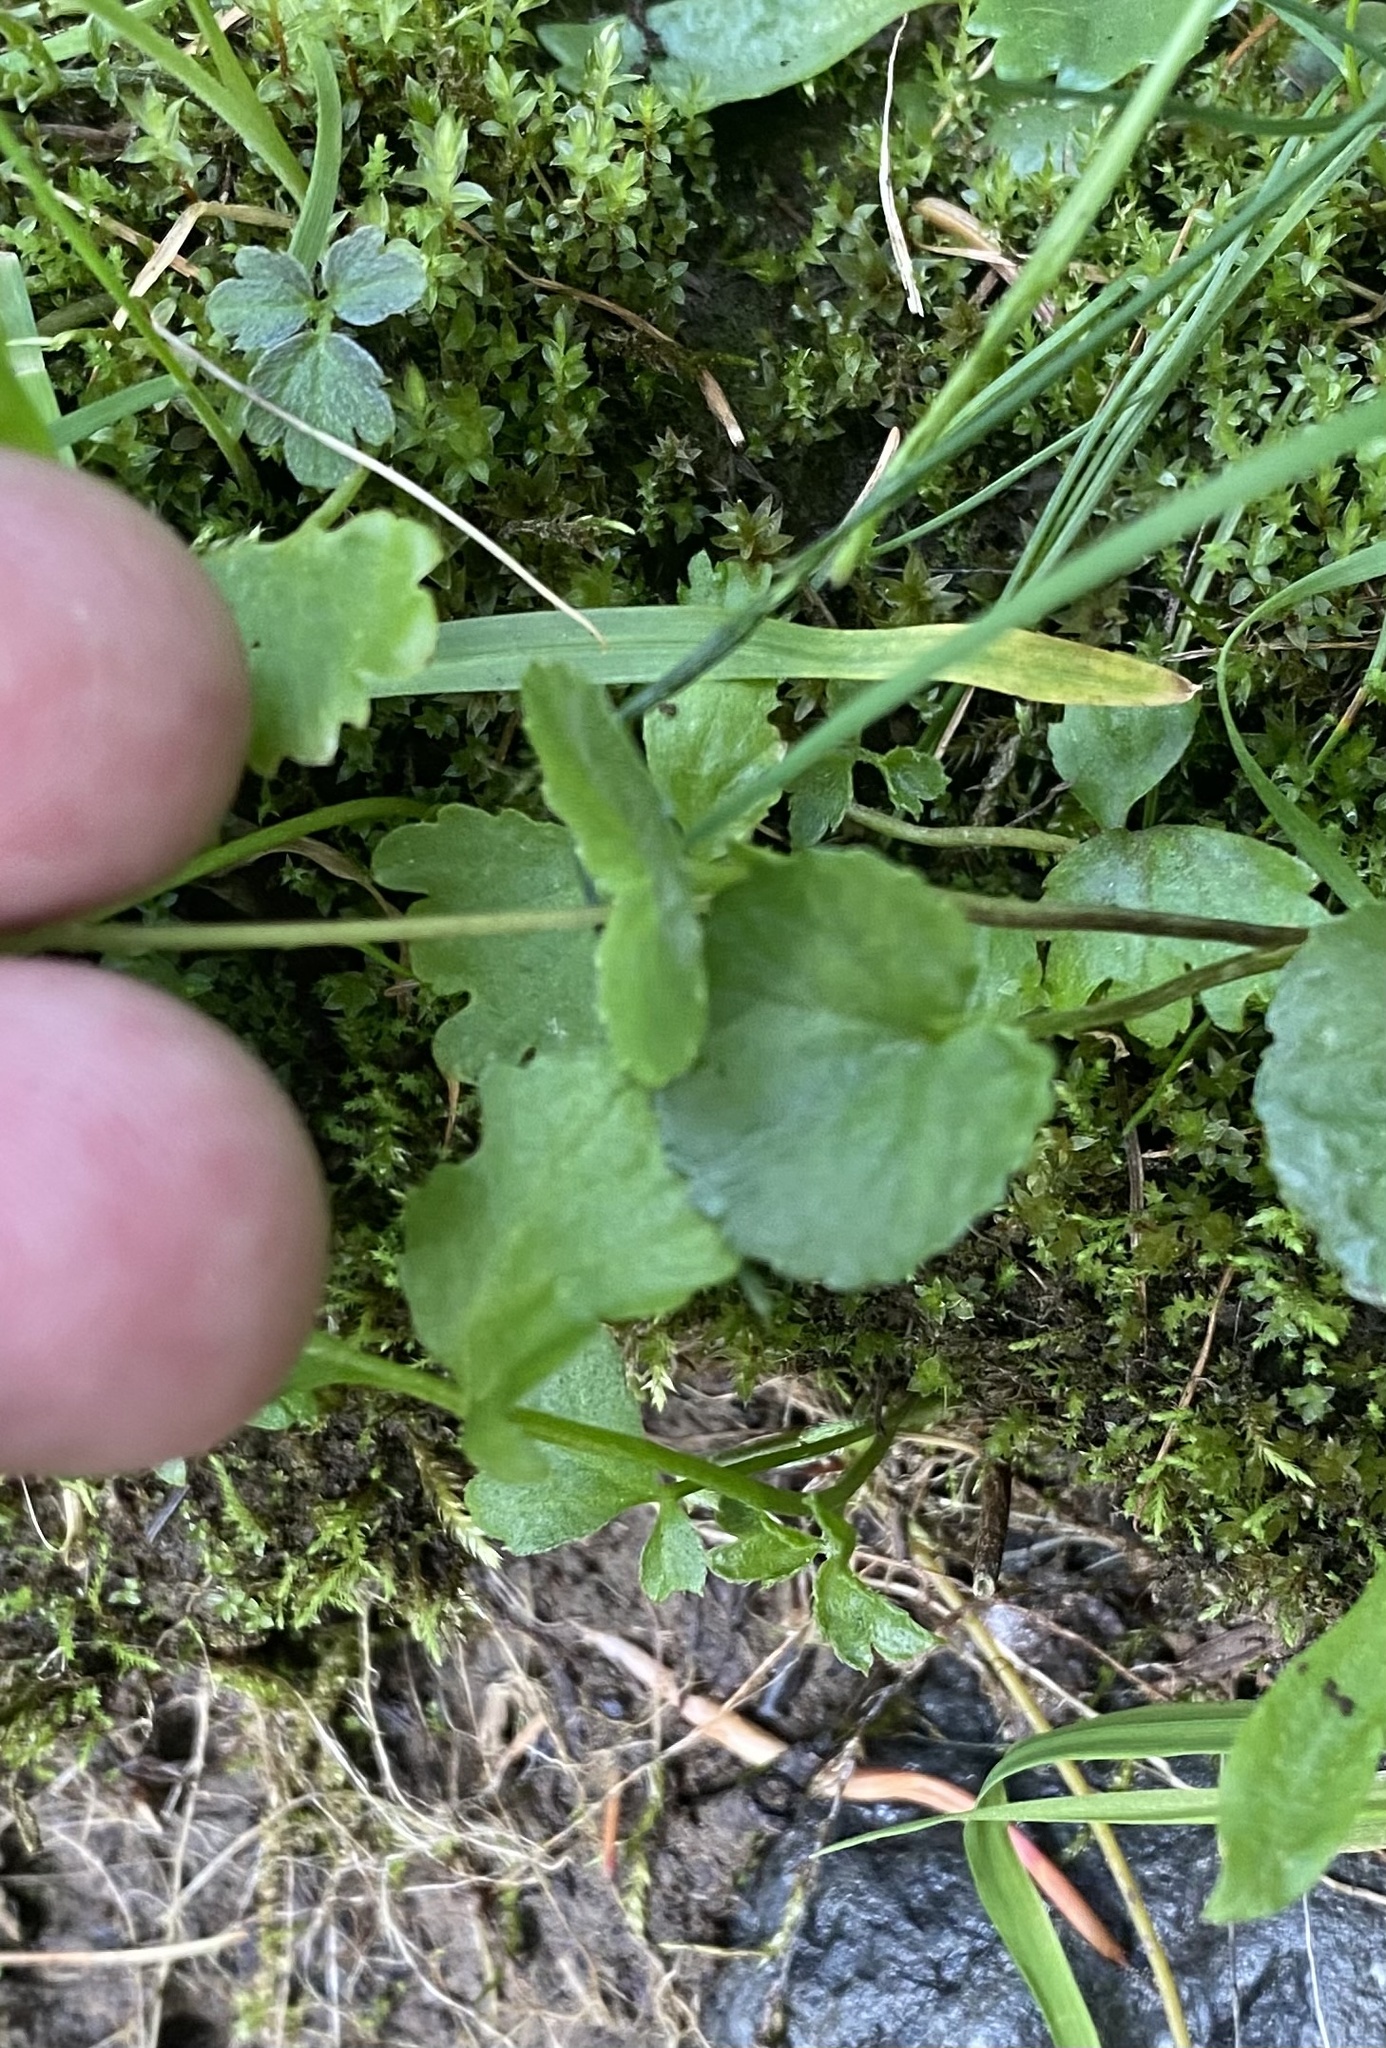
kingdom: Plantae
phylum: Tracheophyta
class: Magnoliopsida
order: Malpighiales
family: Violaceae
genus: Viola
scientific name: Viola biflora
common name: Alpine yellow violet
